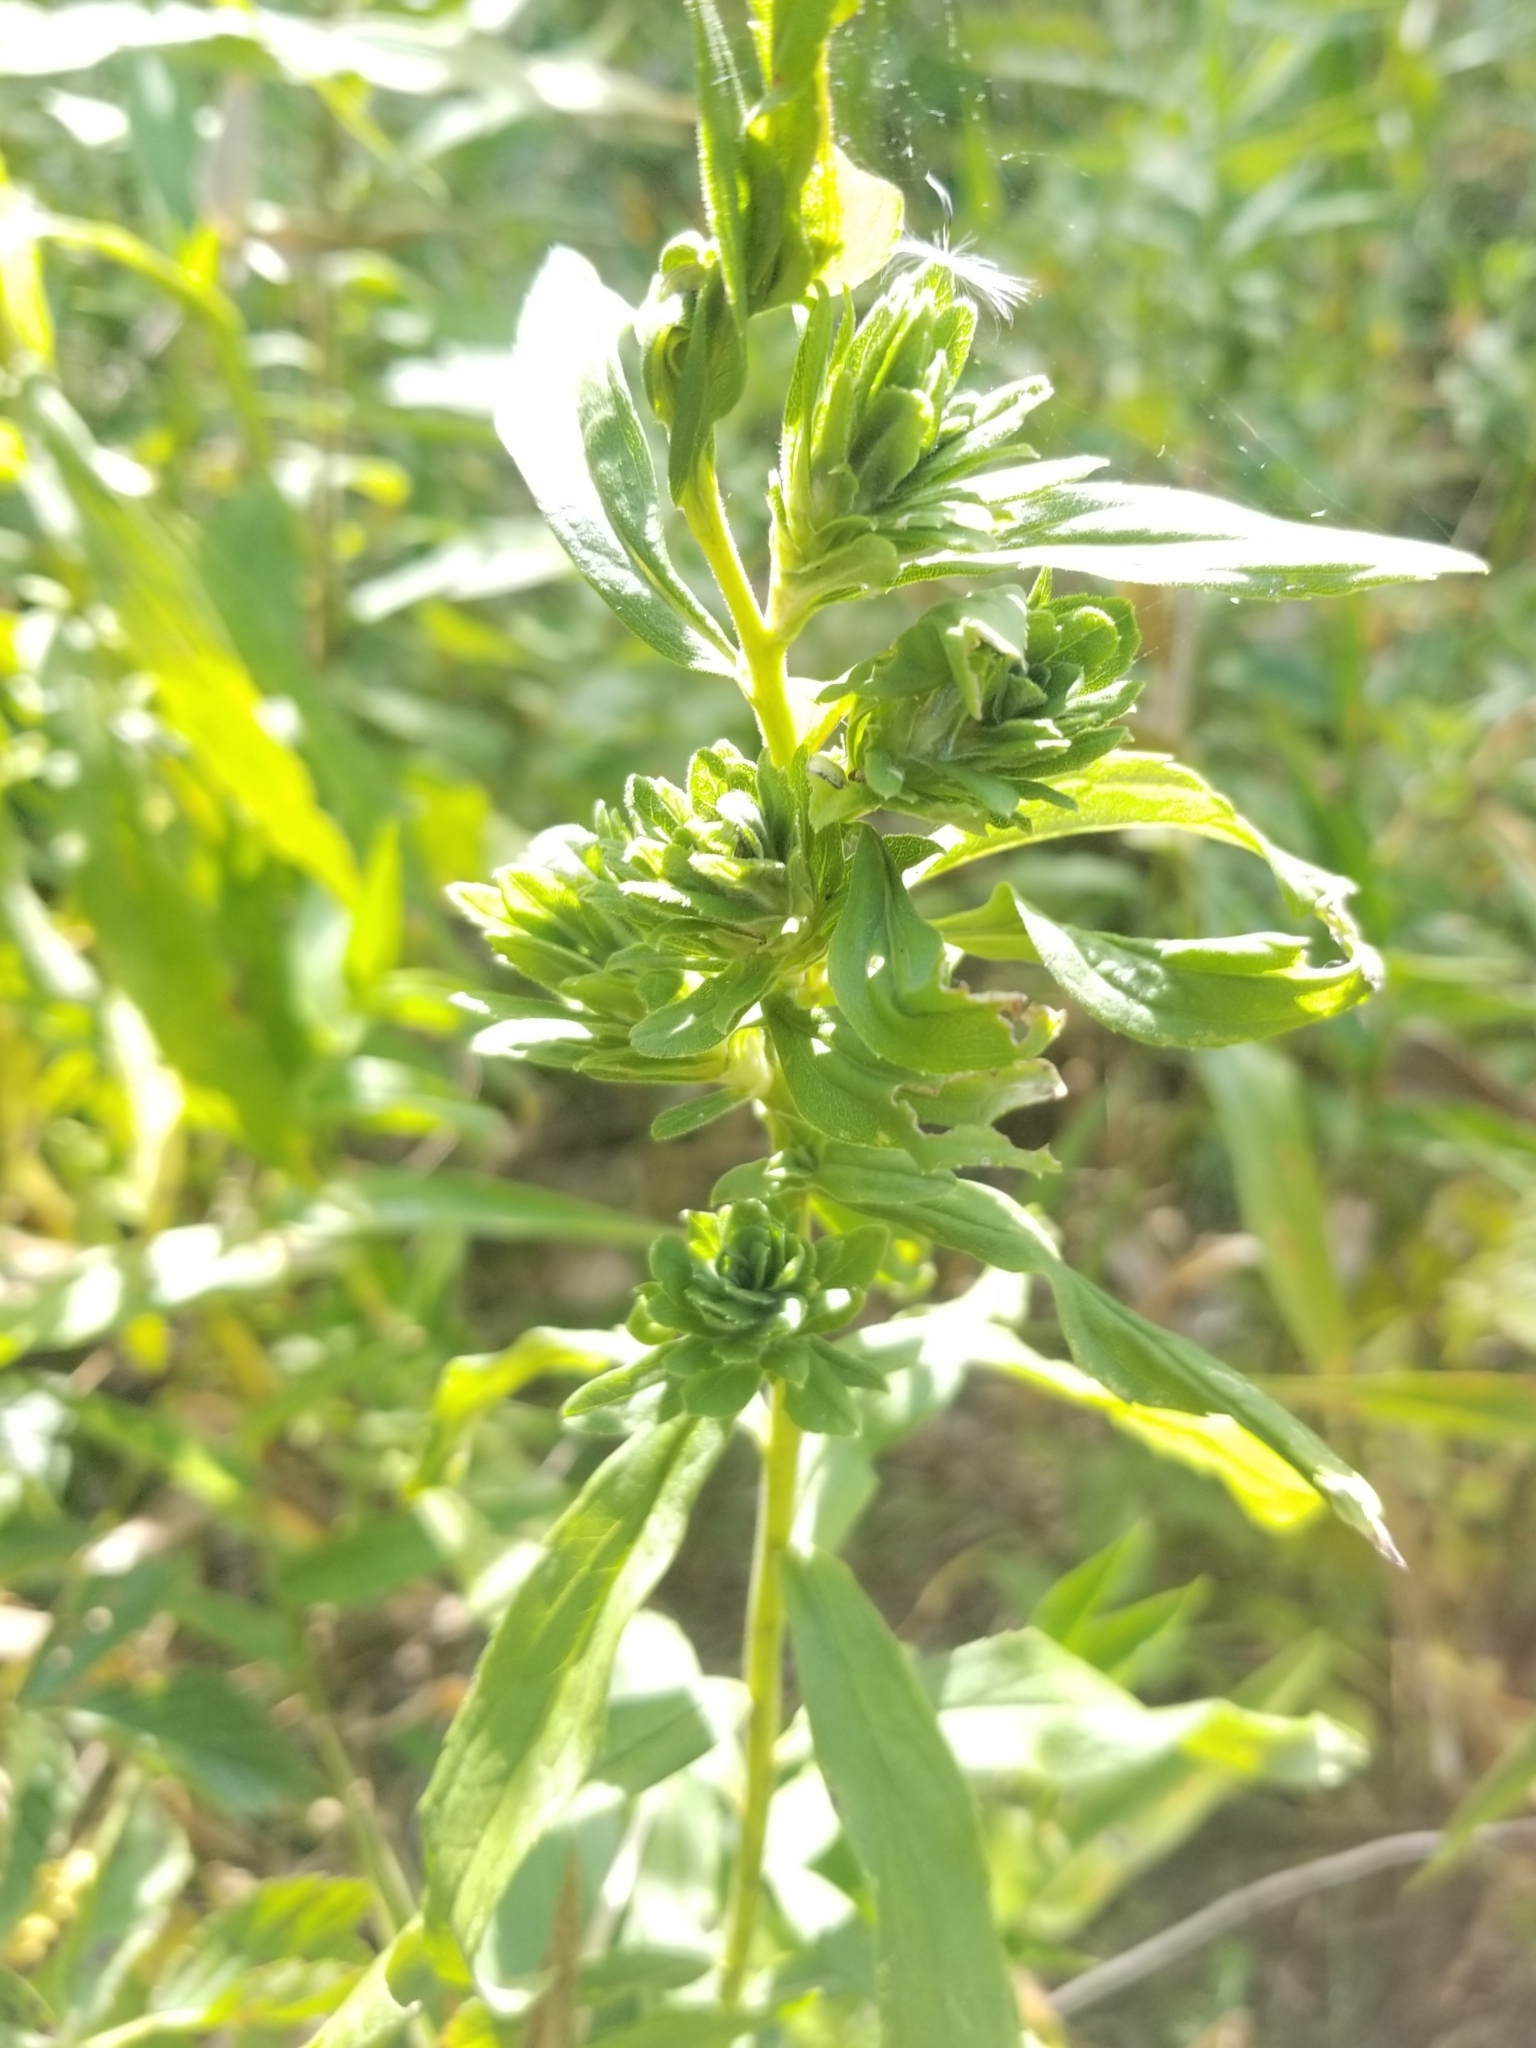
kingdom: Animalia
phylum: Arthropoda
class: Insecta
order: Diptera
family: Tephritidae
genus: Procecidochares
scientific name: Procecidochares atra
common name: Goldenrod brussels sprout gall fly
